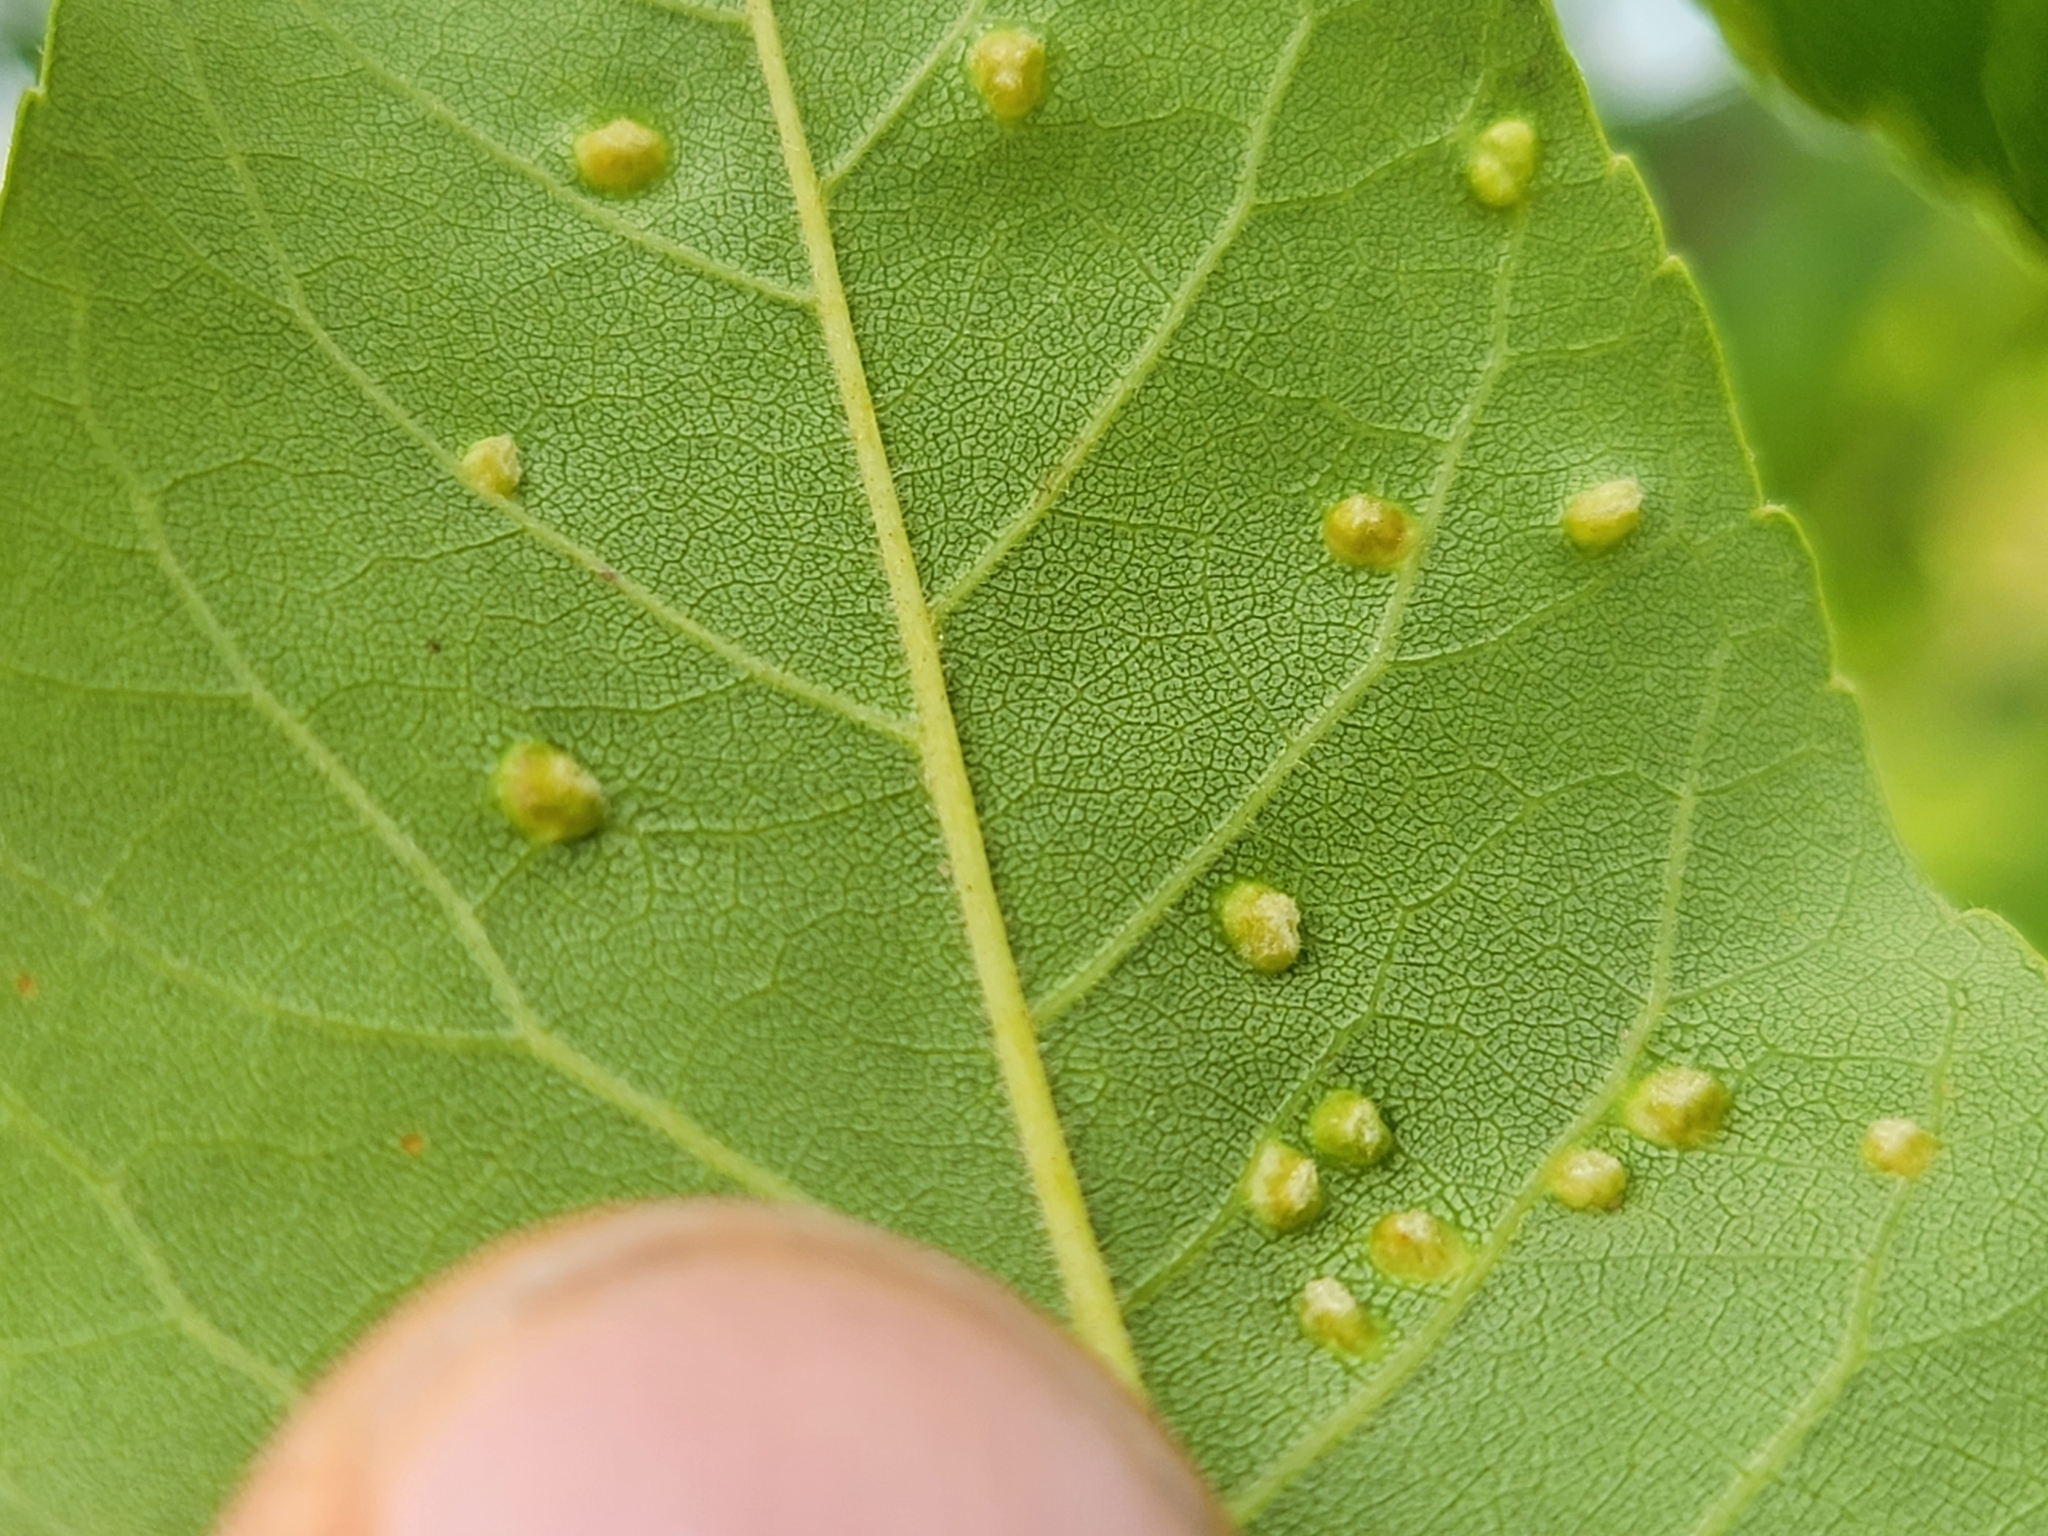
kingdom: Animalia
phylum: Arthropoda
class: Arachnida
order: Trombidiformes
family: Eriophyidae
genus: Aceria
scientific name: Aceria fraxinicola
